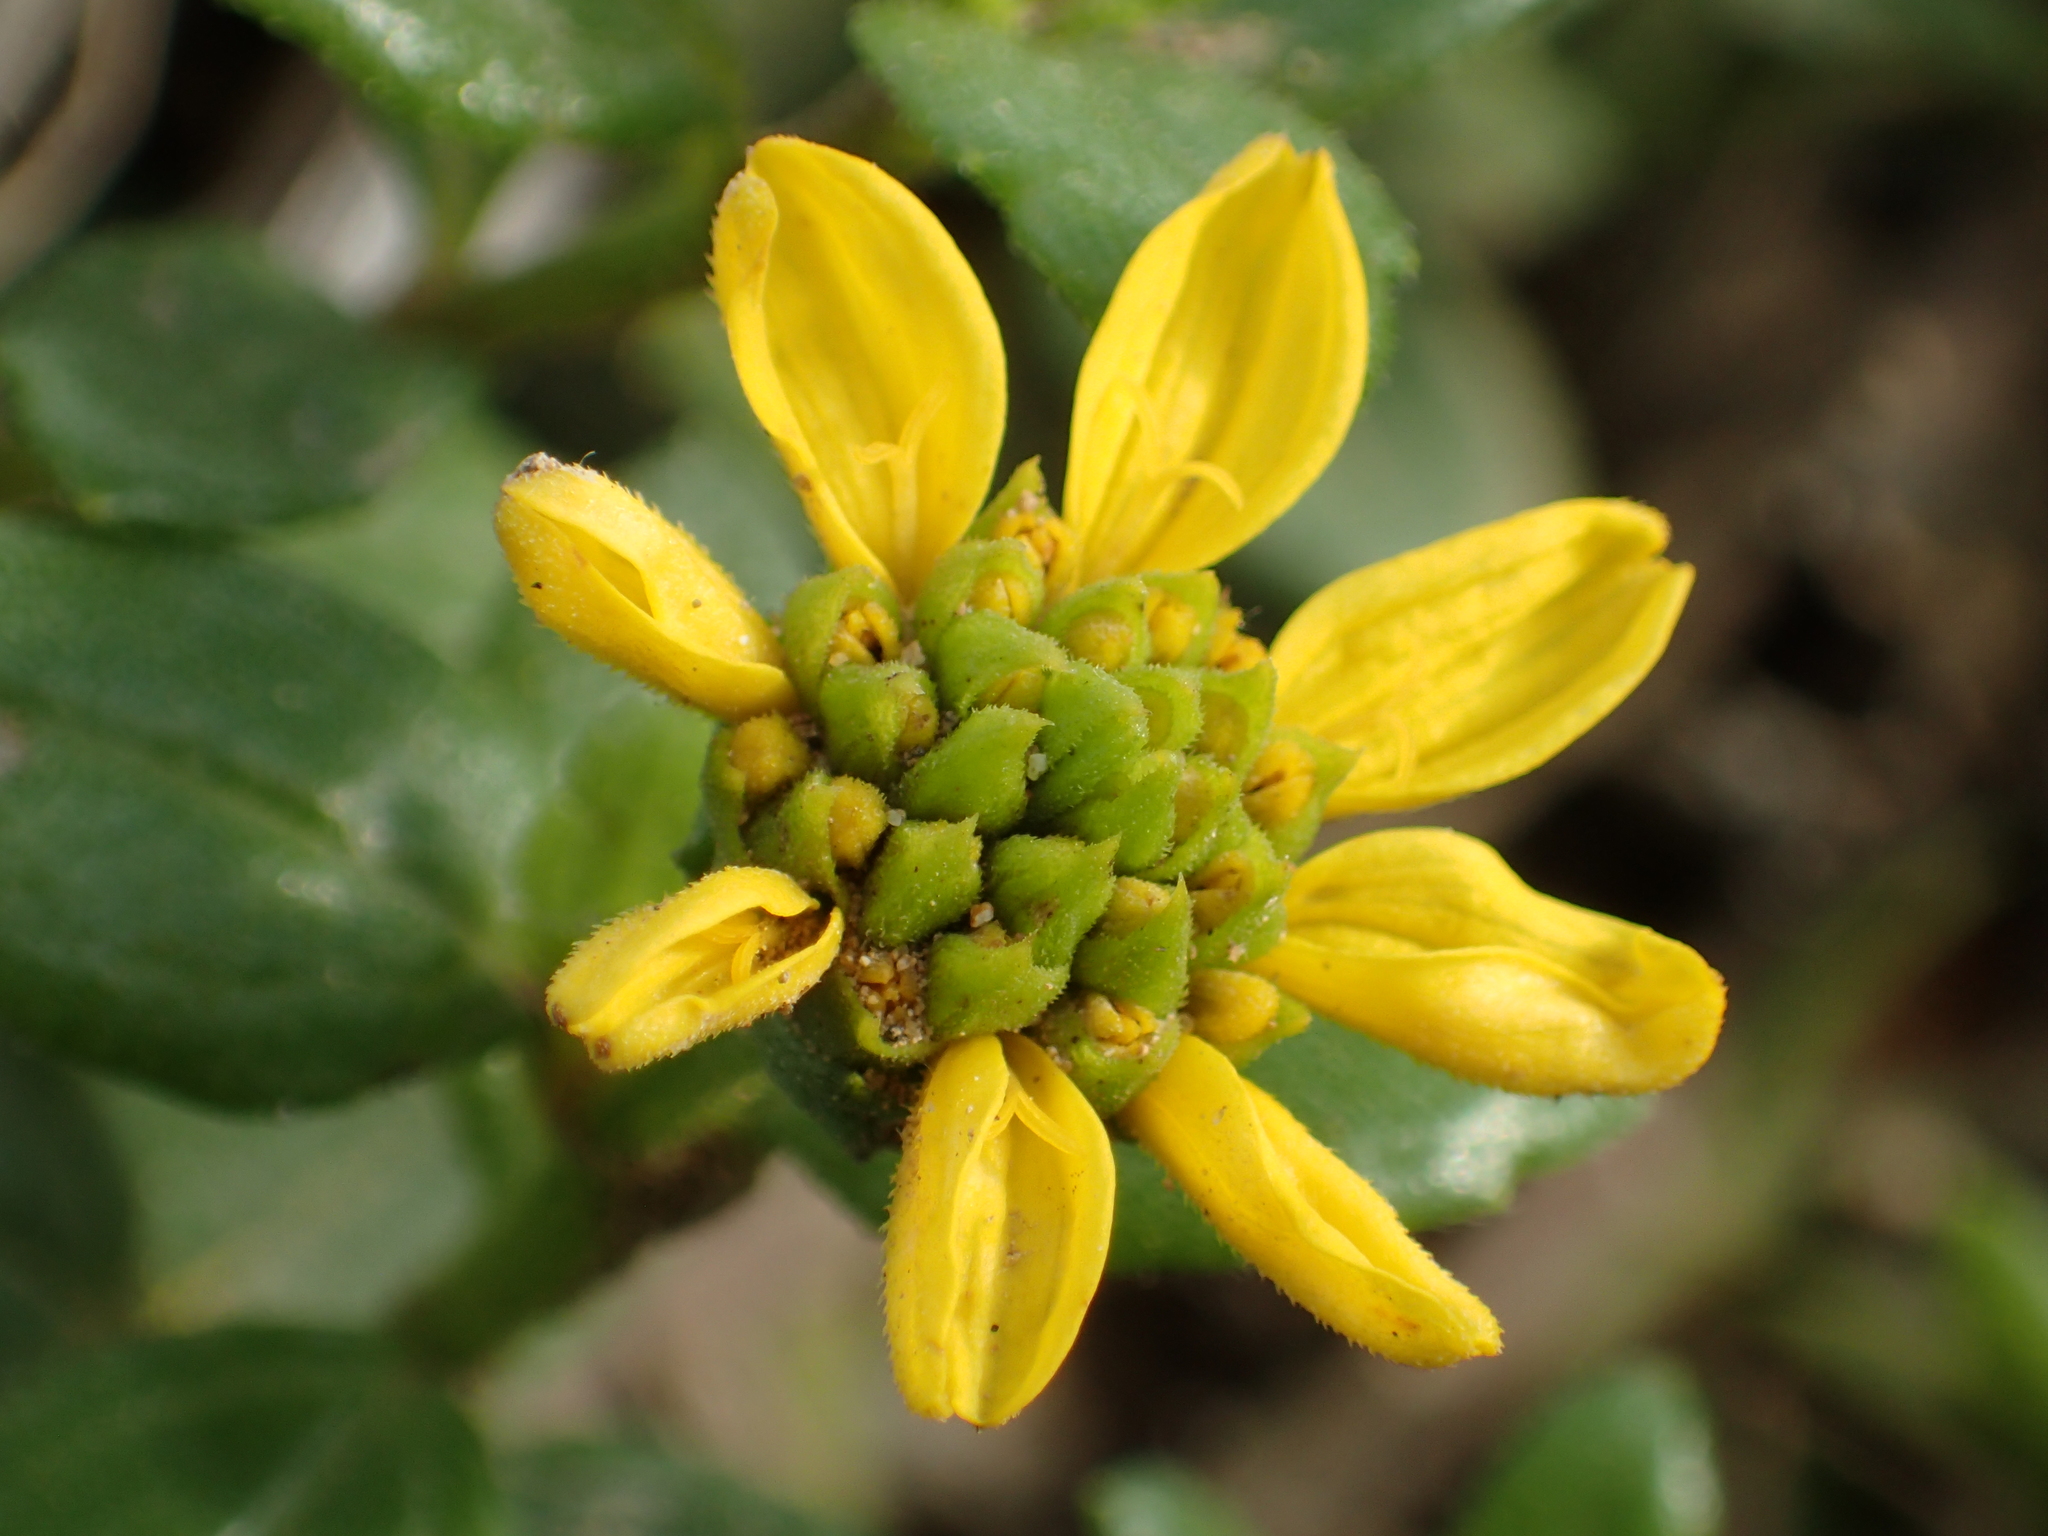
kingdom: Plantae
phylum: Tracheophyta
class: Magnoliopsida
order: Asterales
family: Asteraceae
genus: Melanthera
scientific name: Melanthera prostrata
